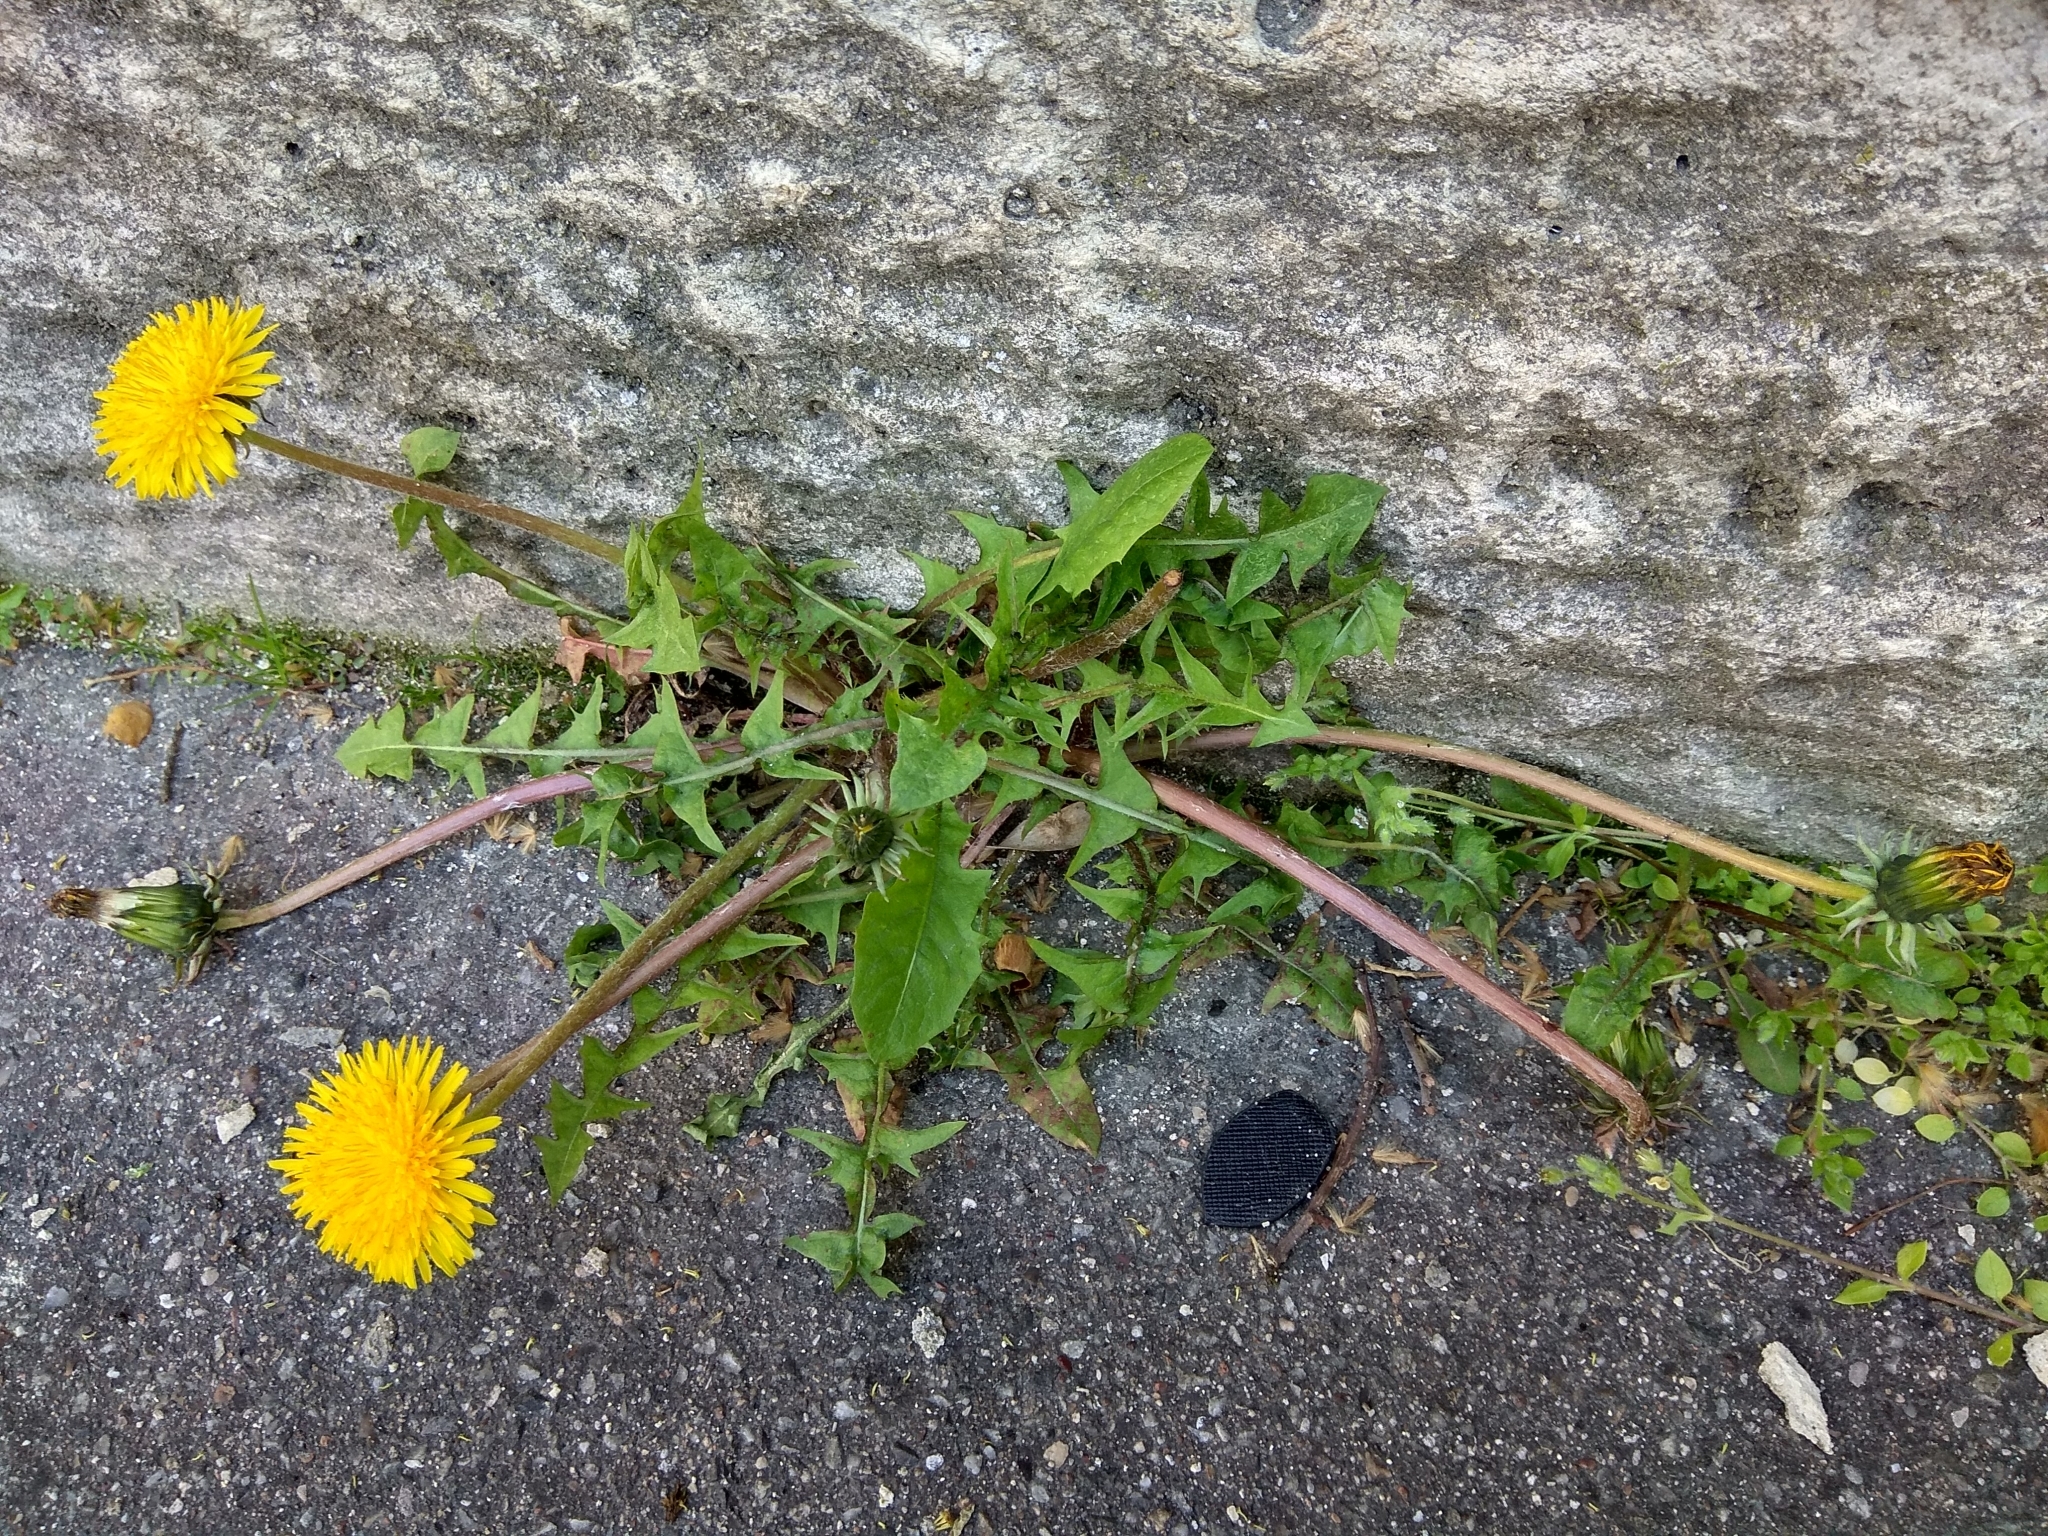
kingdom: Plantae
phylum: Tracheophyta
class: Magnoliopsida
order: Asterales
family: Asteraceae
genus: Taraxacum
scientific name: Taraxacum officinale
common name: Common dandelion
